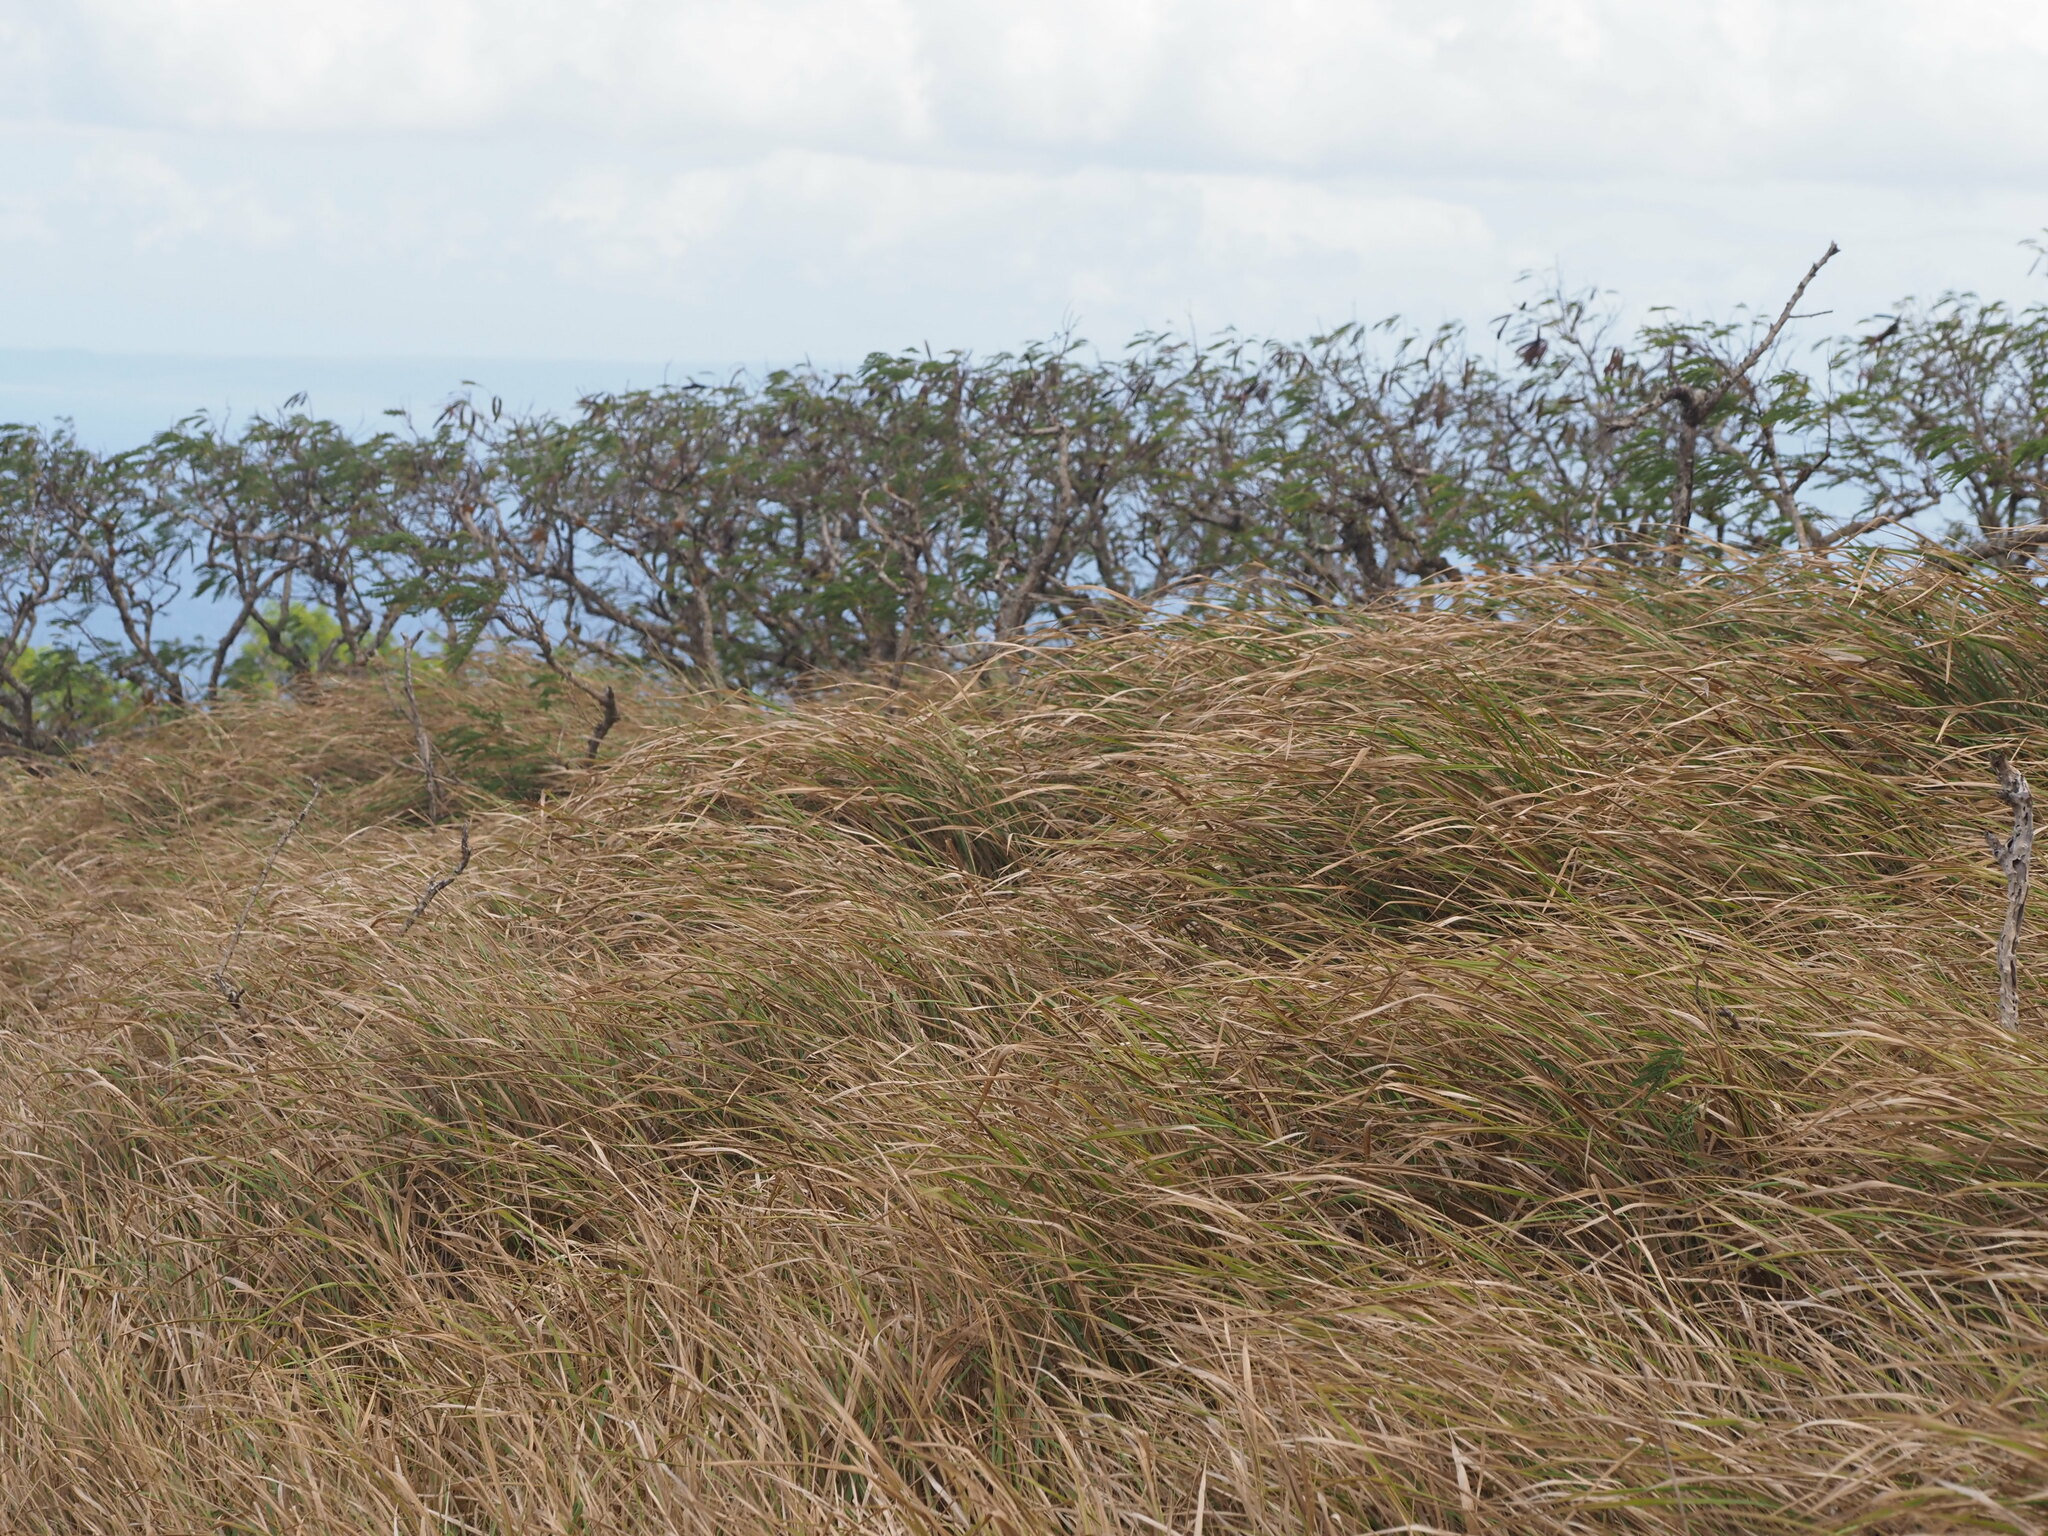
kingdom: Plantae
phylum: Tracheophyta
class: Liliopsida
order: Poales
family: Poaceae
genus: Megathyrsus
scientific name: Megathyrsus maximus
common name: Guineagrass
